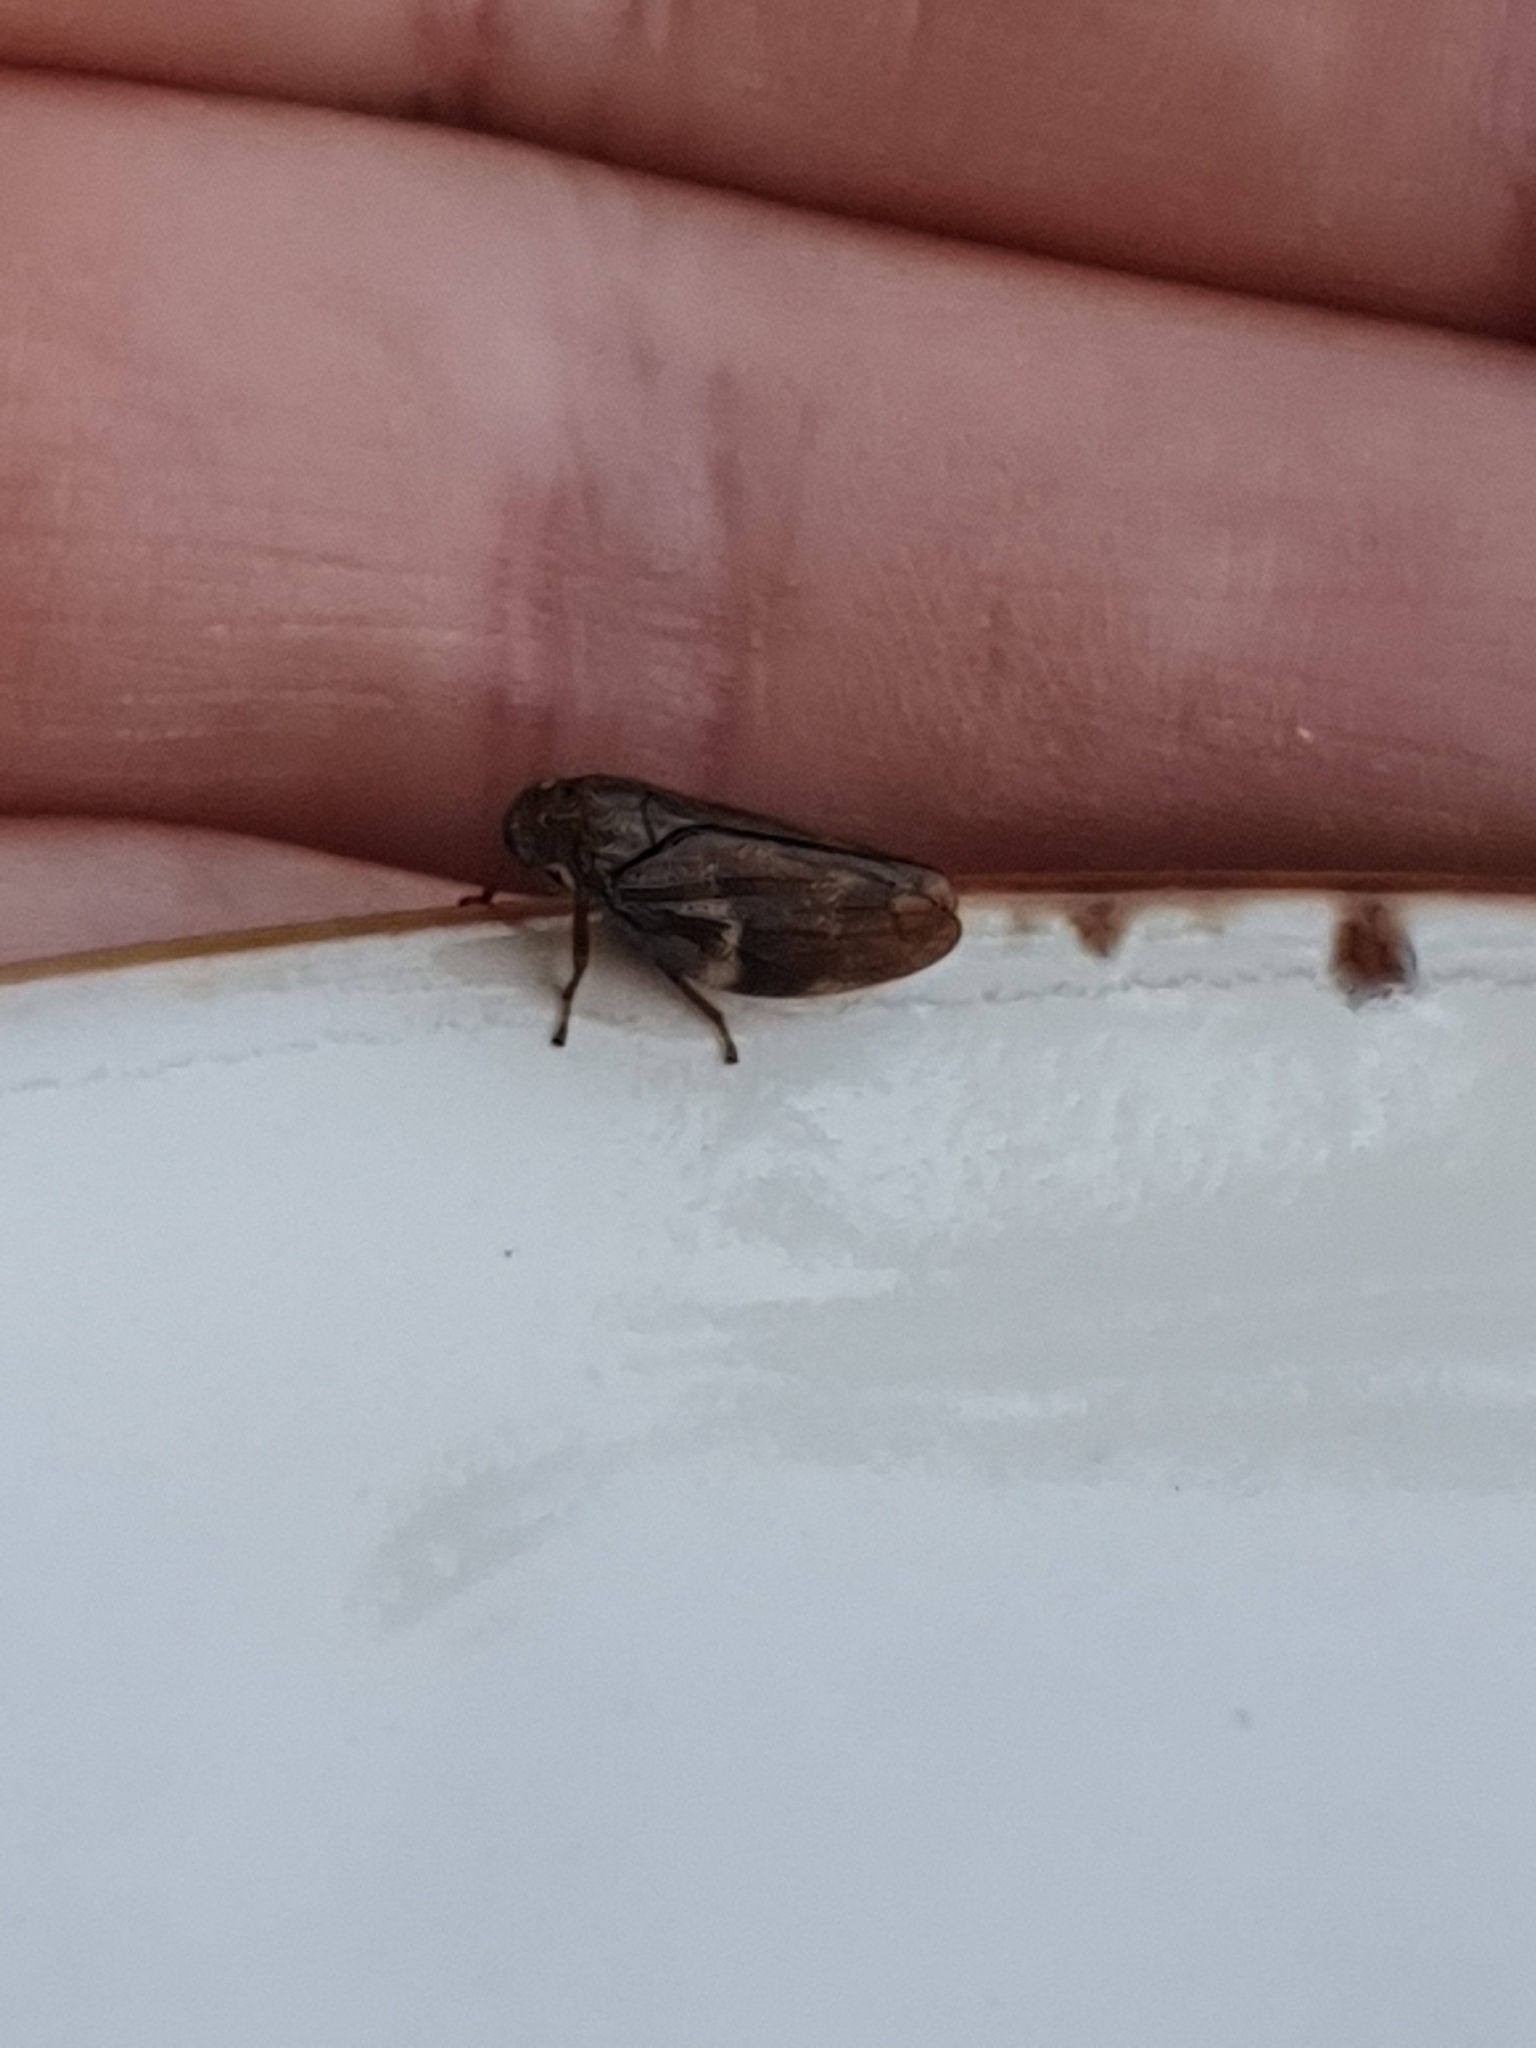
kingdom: Animalia
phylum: Arthropoda
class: Insecta
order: Hemiptera
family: Aphrophoridae
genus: Aphrophora
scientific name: Aphrophora alni
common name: European alder spittlebug
